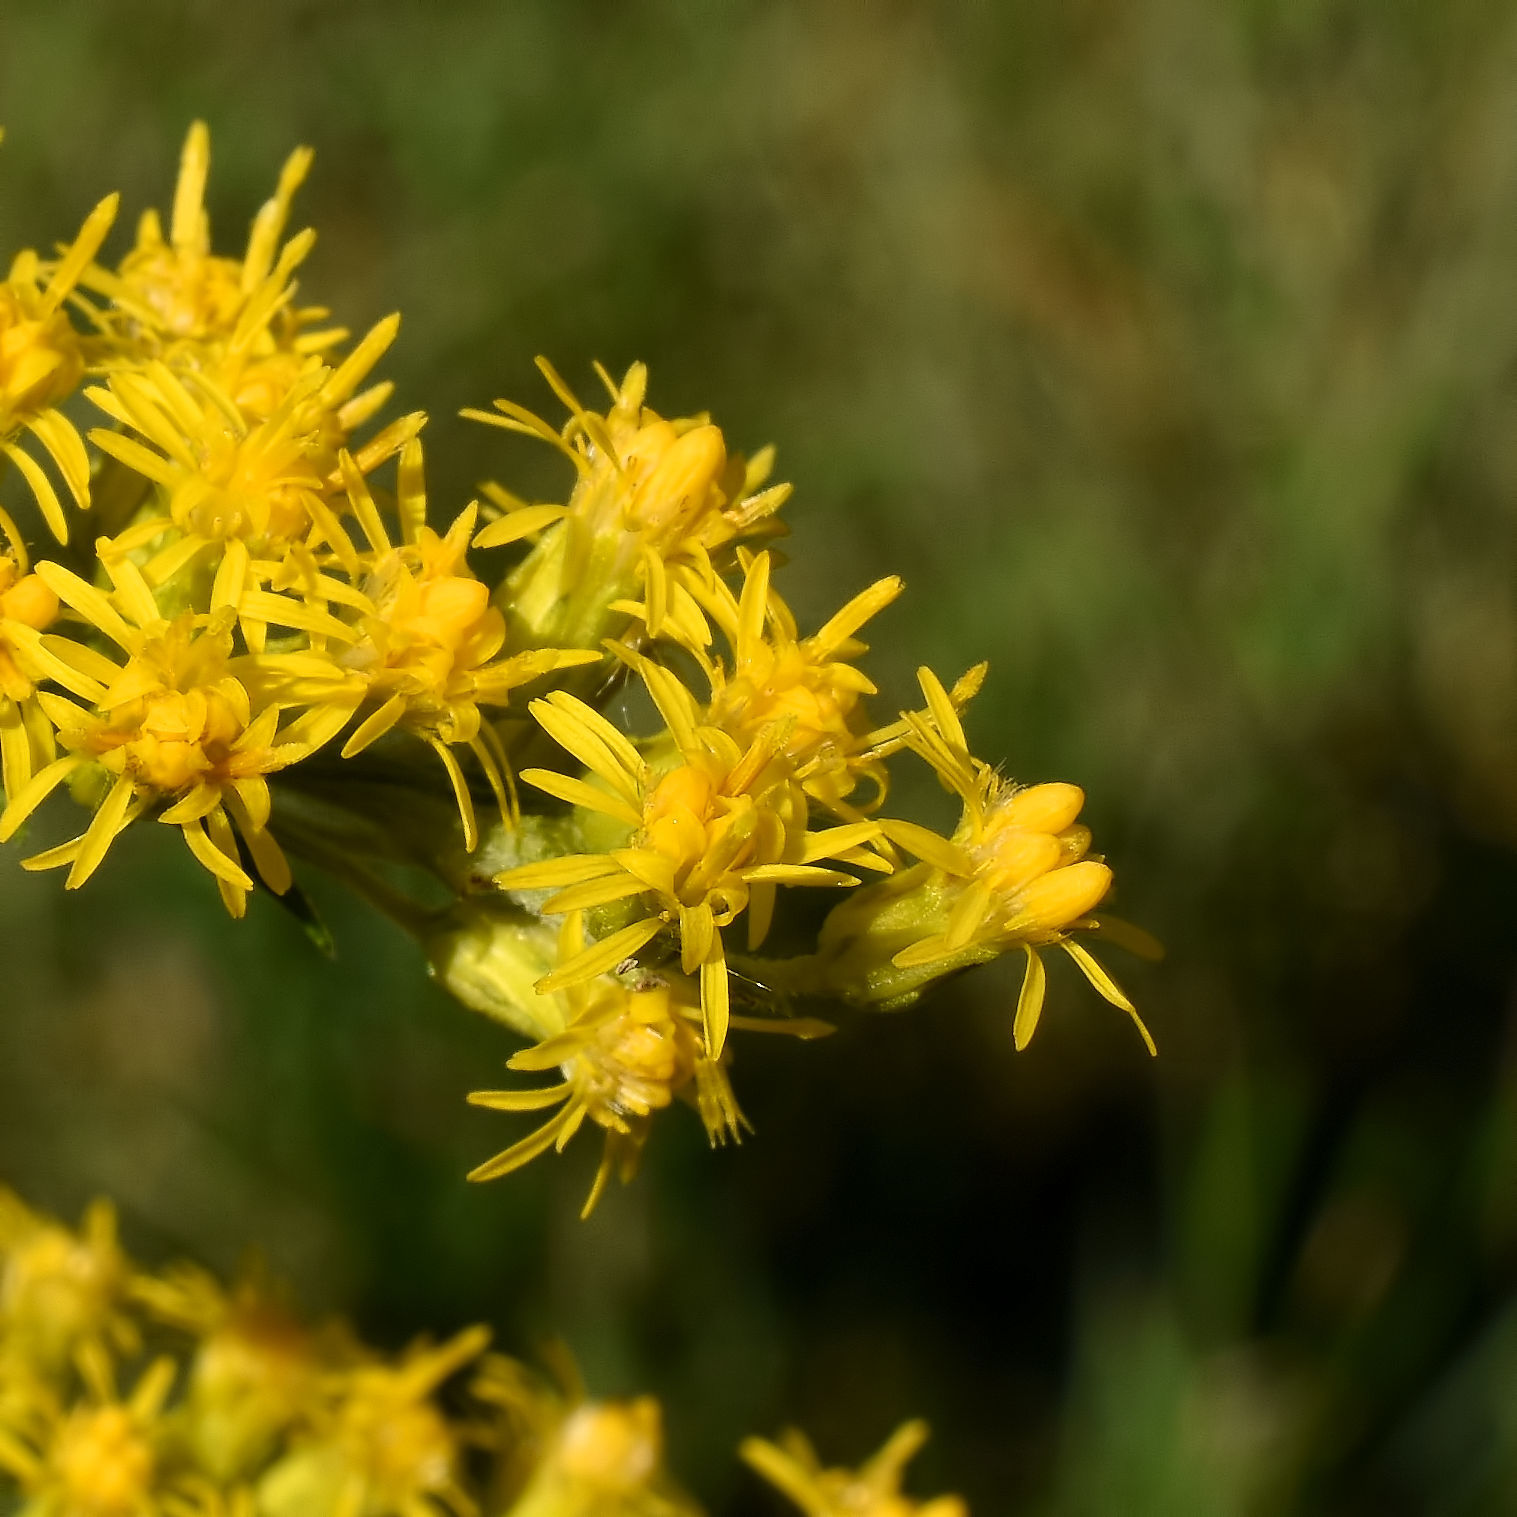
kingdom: Plantae
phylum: Tracheophyta
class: Magnoliopsida
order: Asterales
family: Asteraceae
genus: Solidago
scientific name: Solidago gigantea
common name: Giant goldenrod
